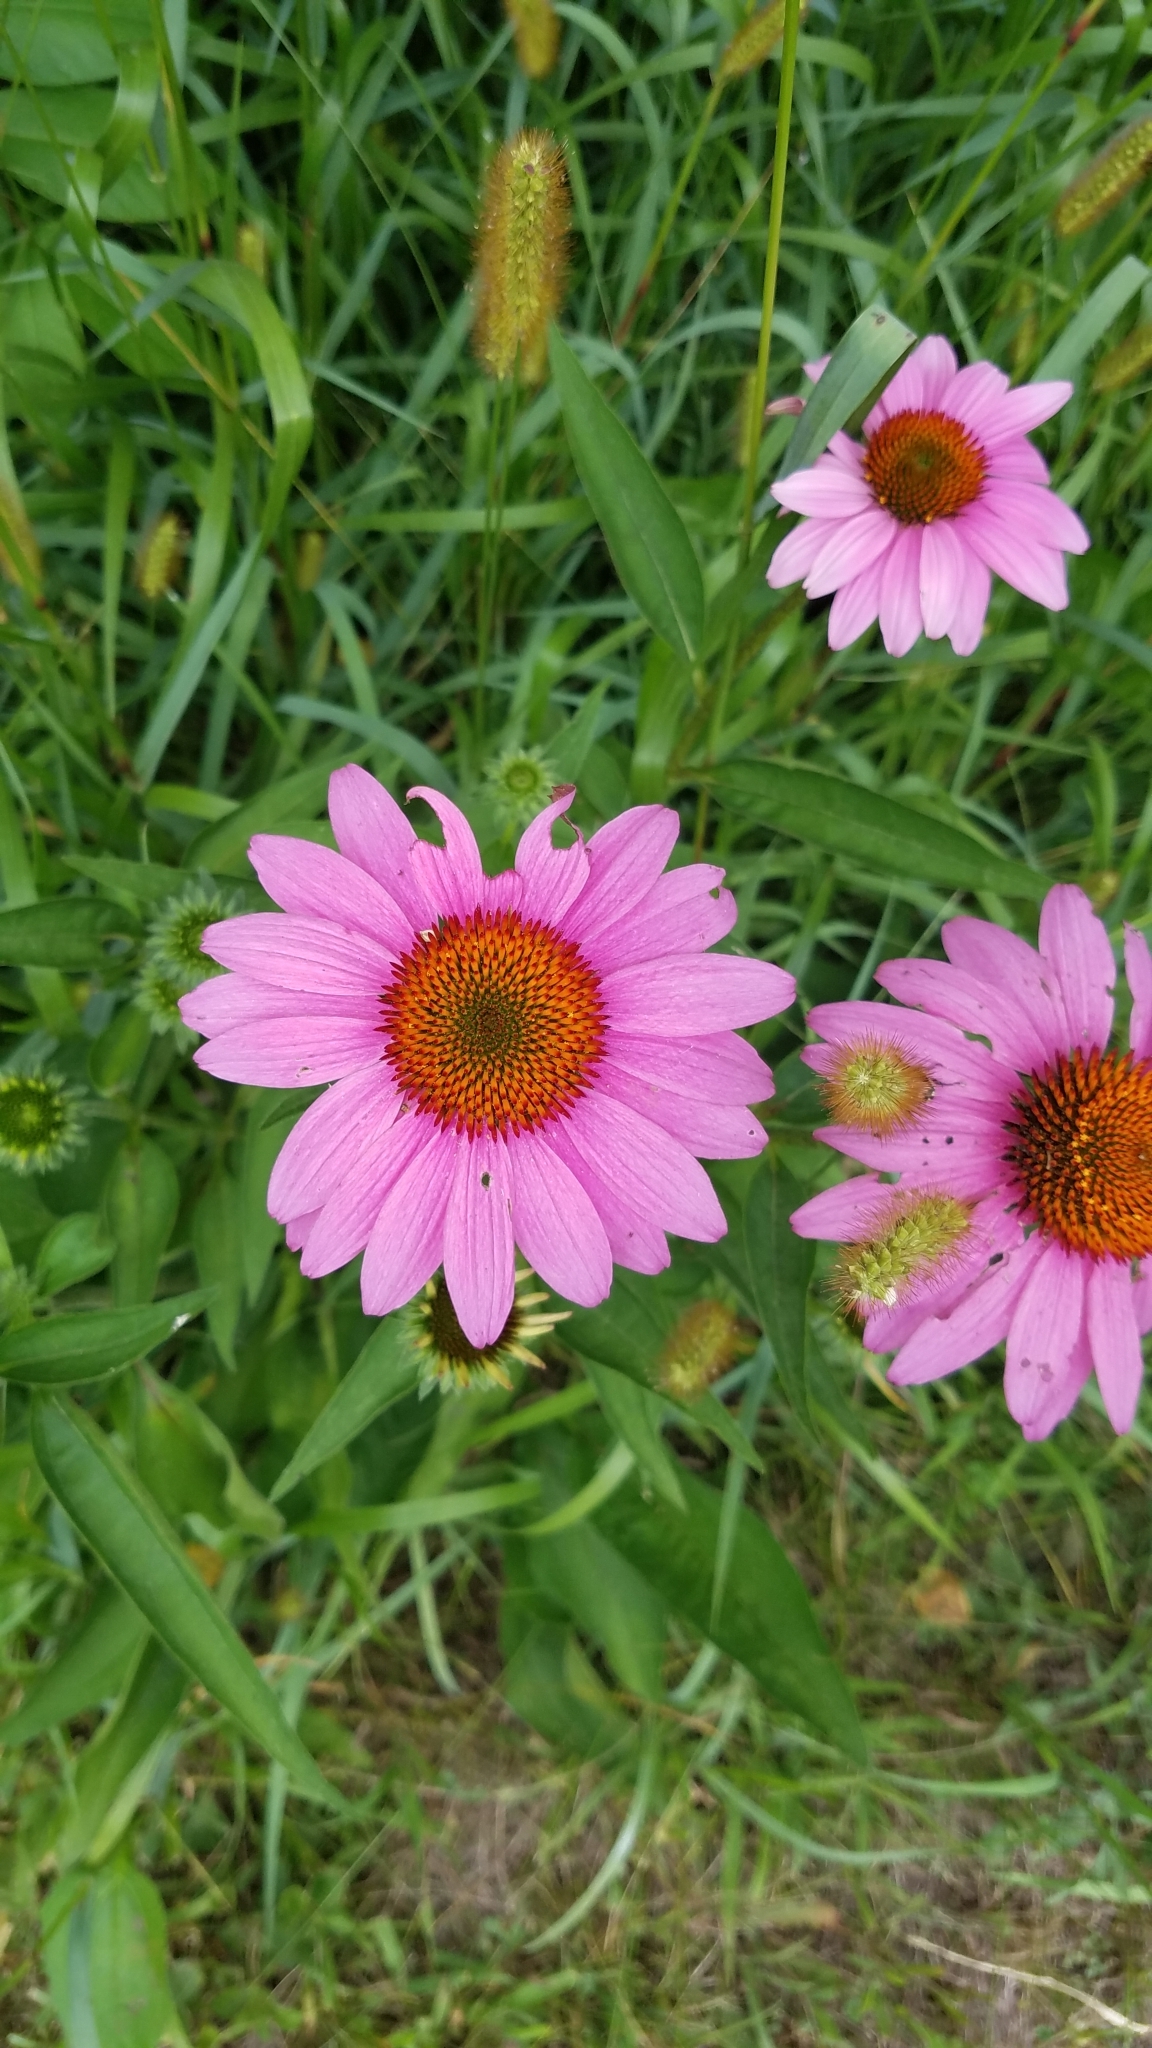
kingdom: Plantae
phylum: Tracheophyta
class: Magnoliopsida
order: Asterales
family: Asteraceae
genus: Echinacea
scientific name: Echinacea purpurea
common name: Broad-leaved purple coneflower
